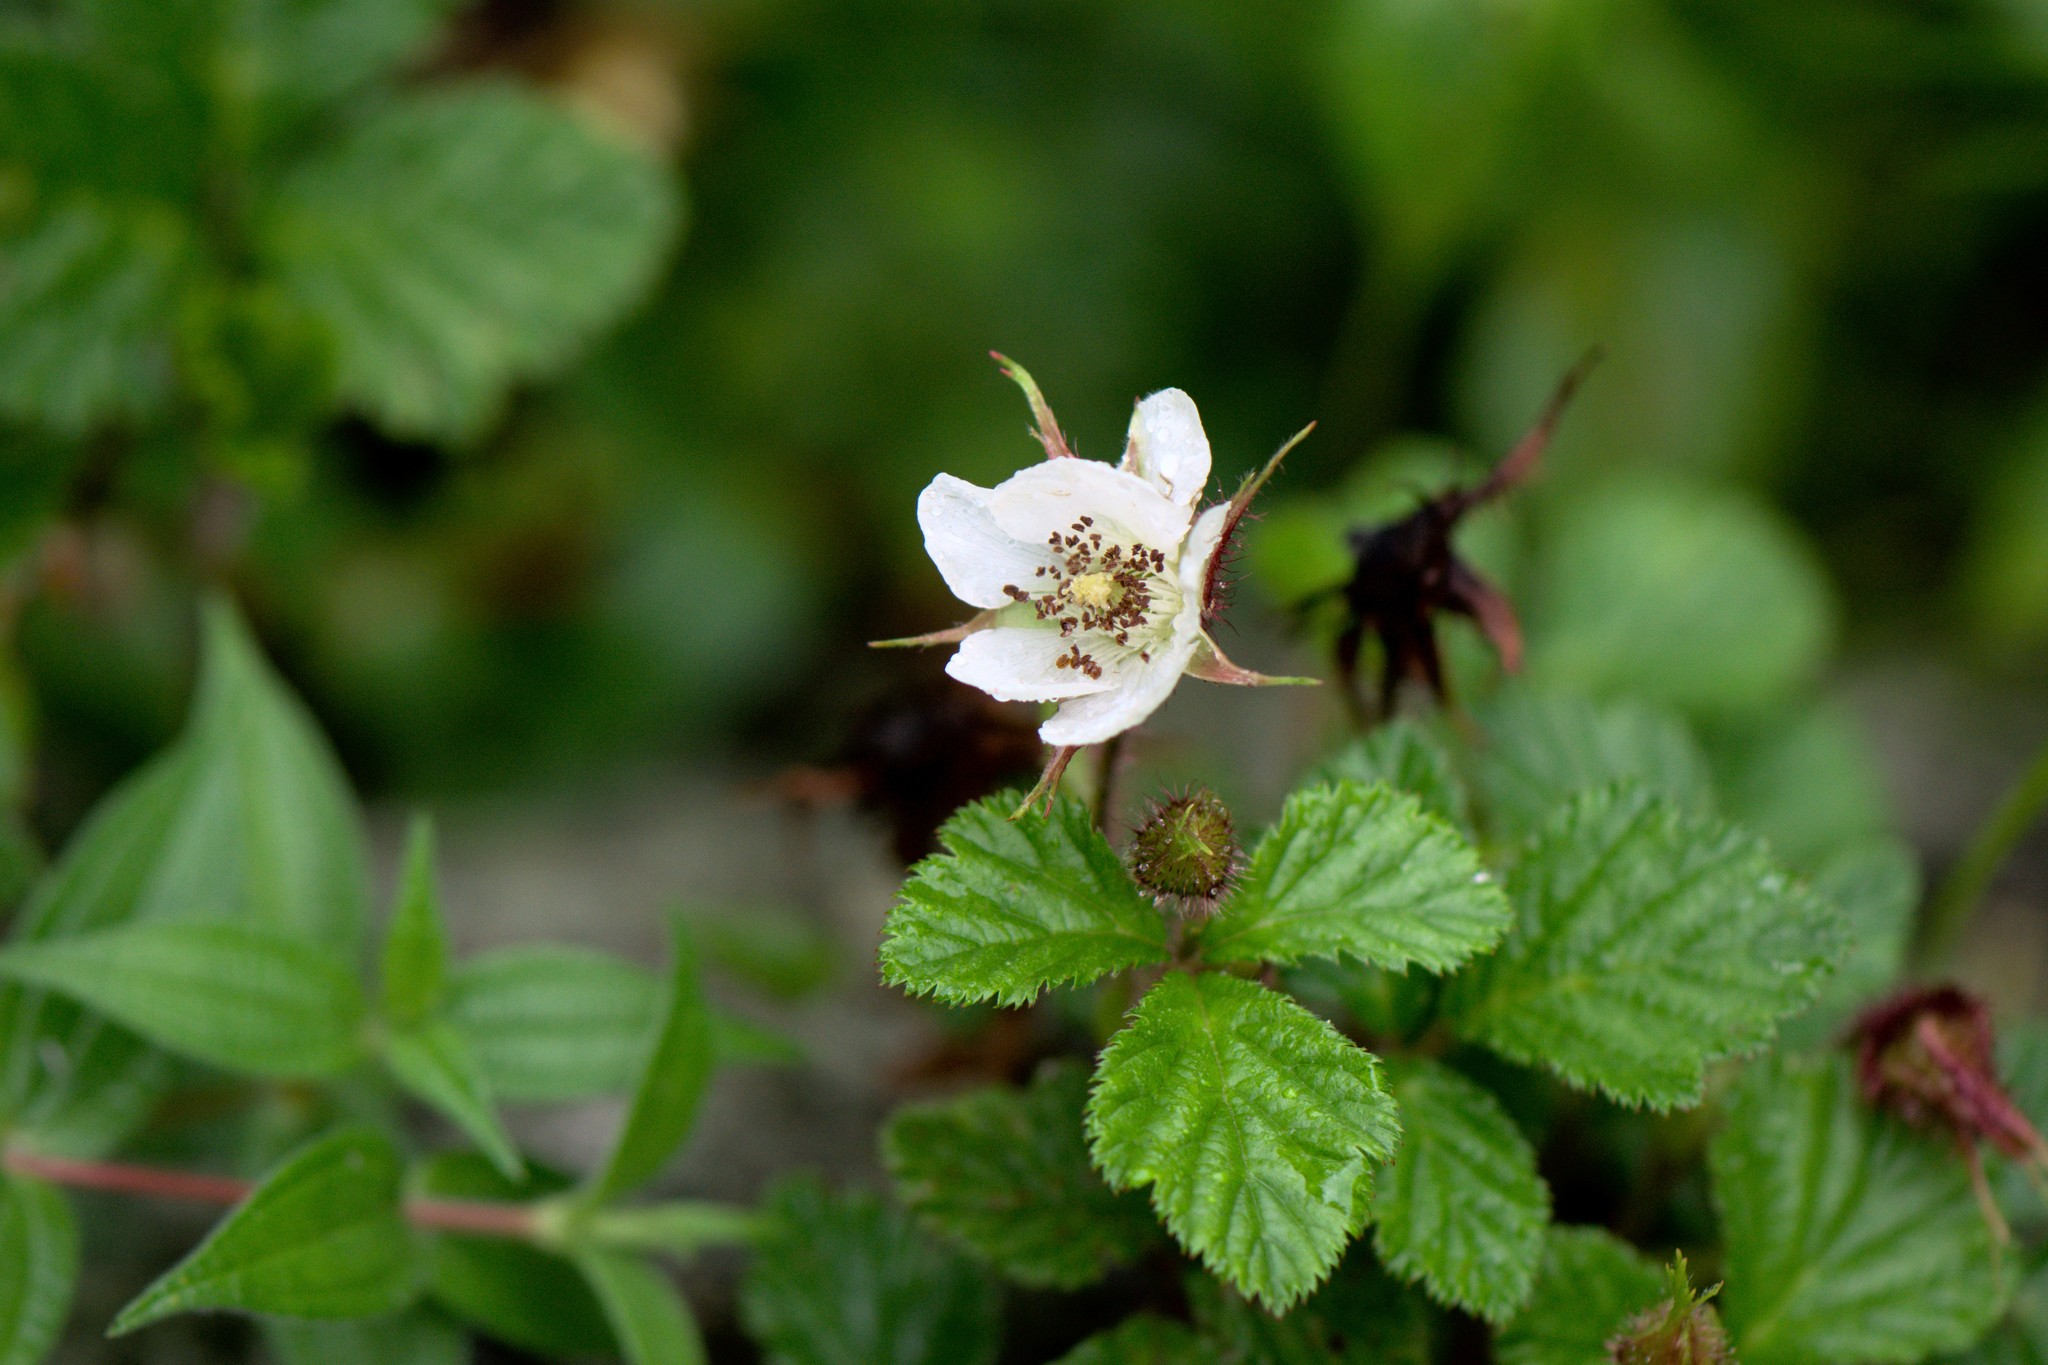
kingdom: Plantae
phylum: Tracheophyta
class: Magnoliopsida
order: Rosales
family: Rosaceae
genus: Rubus
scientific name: Rubus nepalensis
